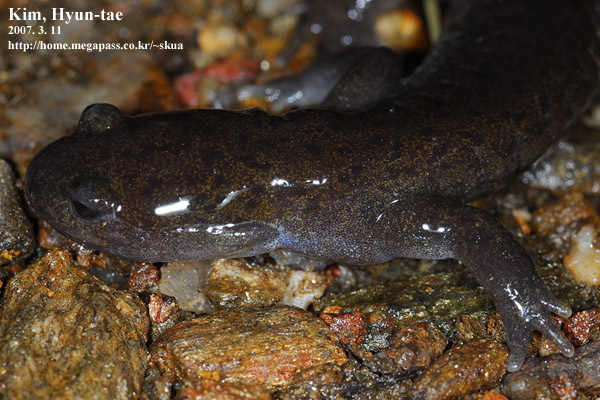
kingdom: Animalia
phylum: Chordata
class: Amphibia
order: Caudata
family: Hynobiidae
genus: Hynobius
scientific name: Hynobius leechii
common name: Gensan salamander
